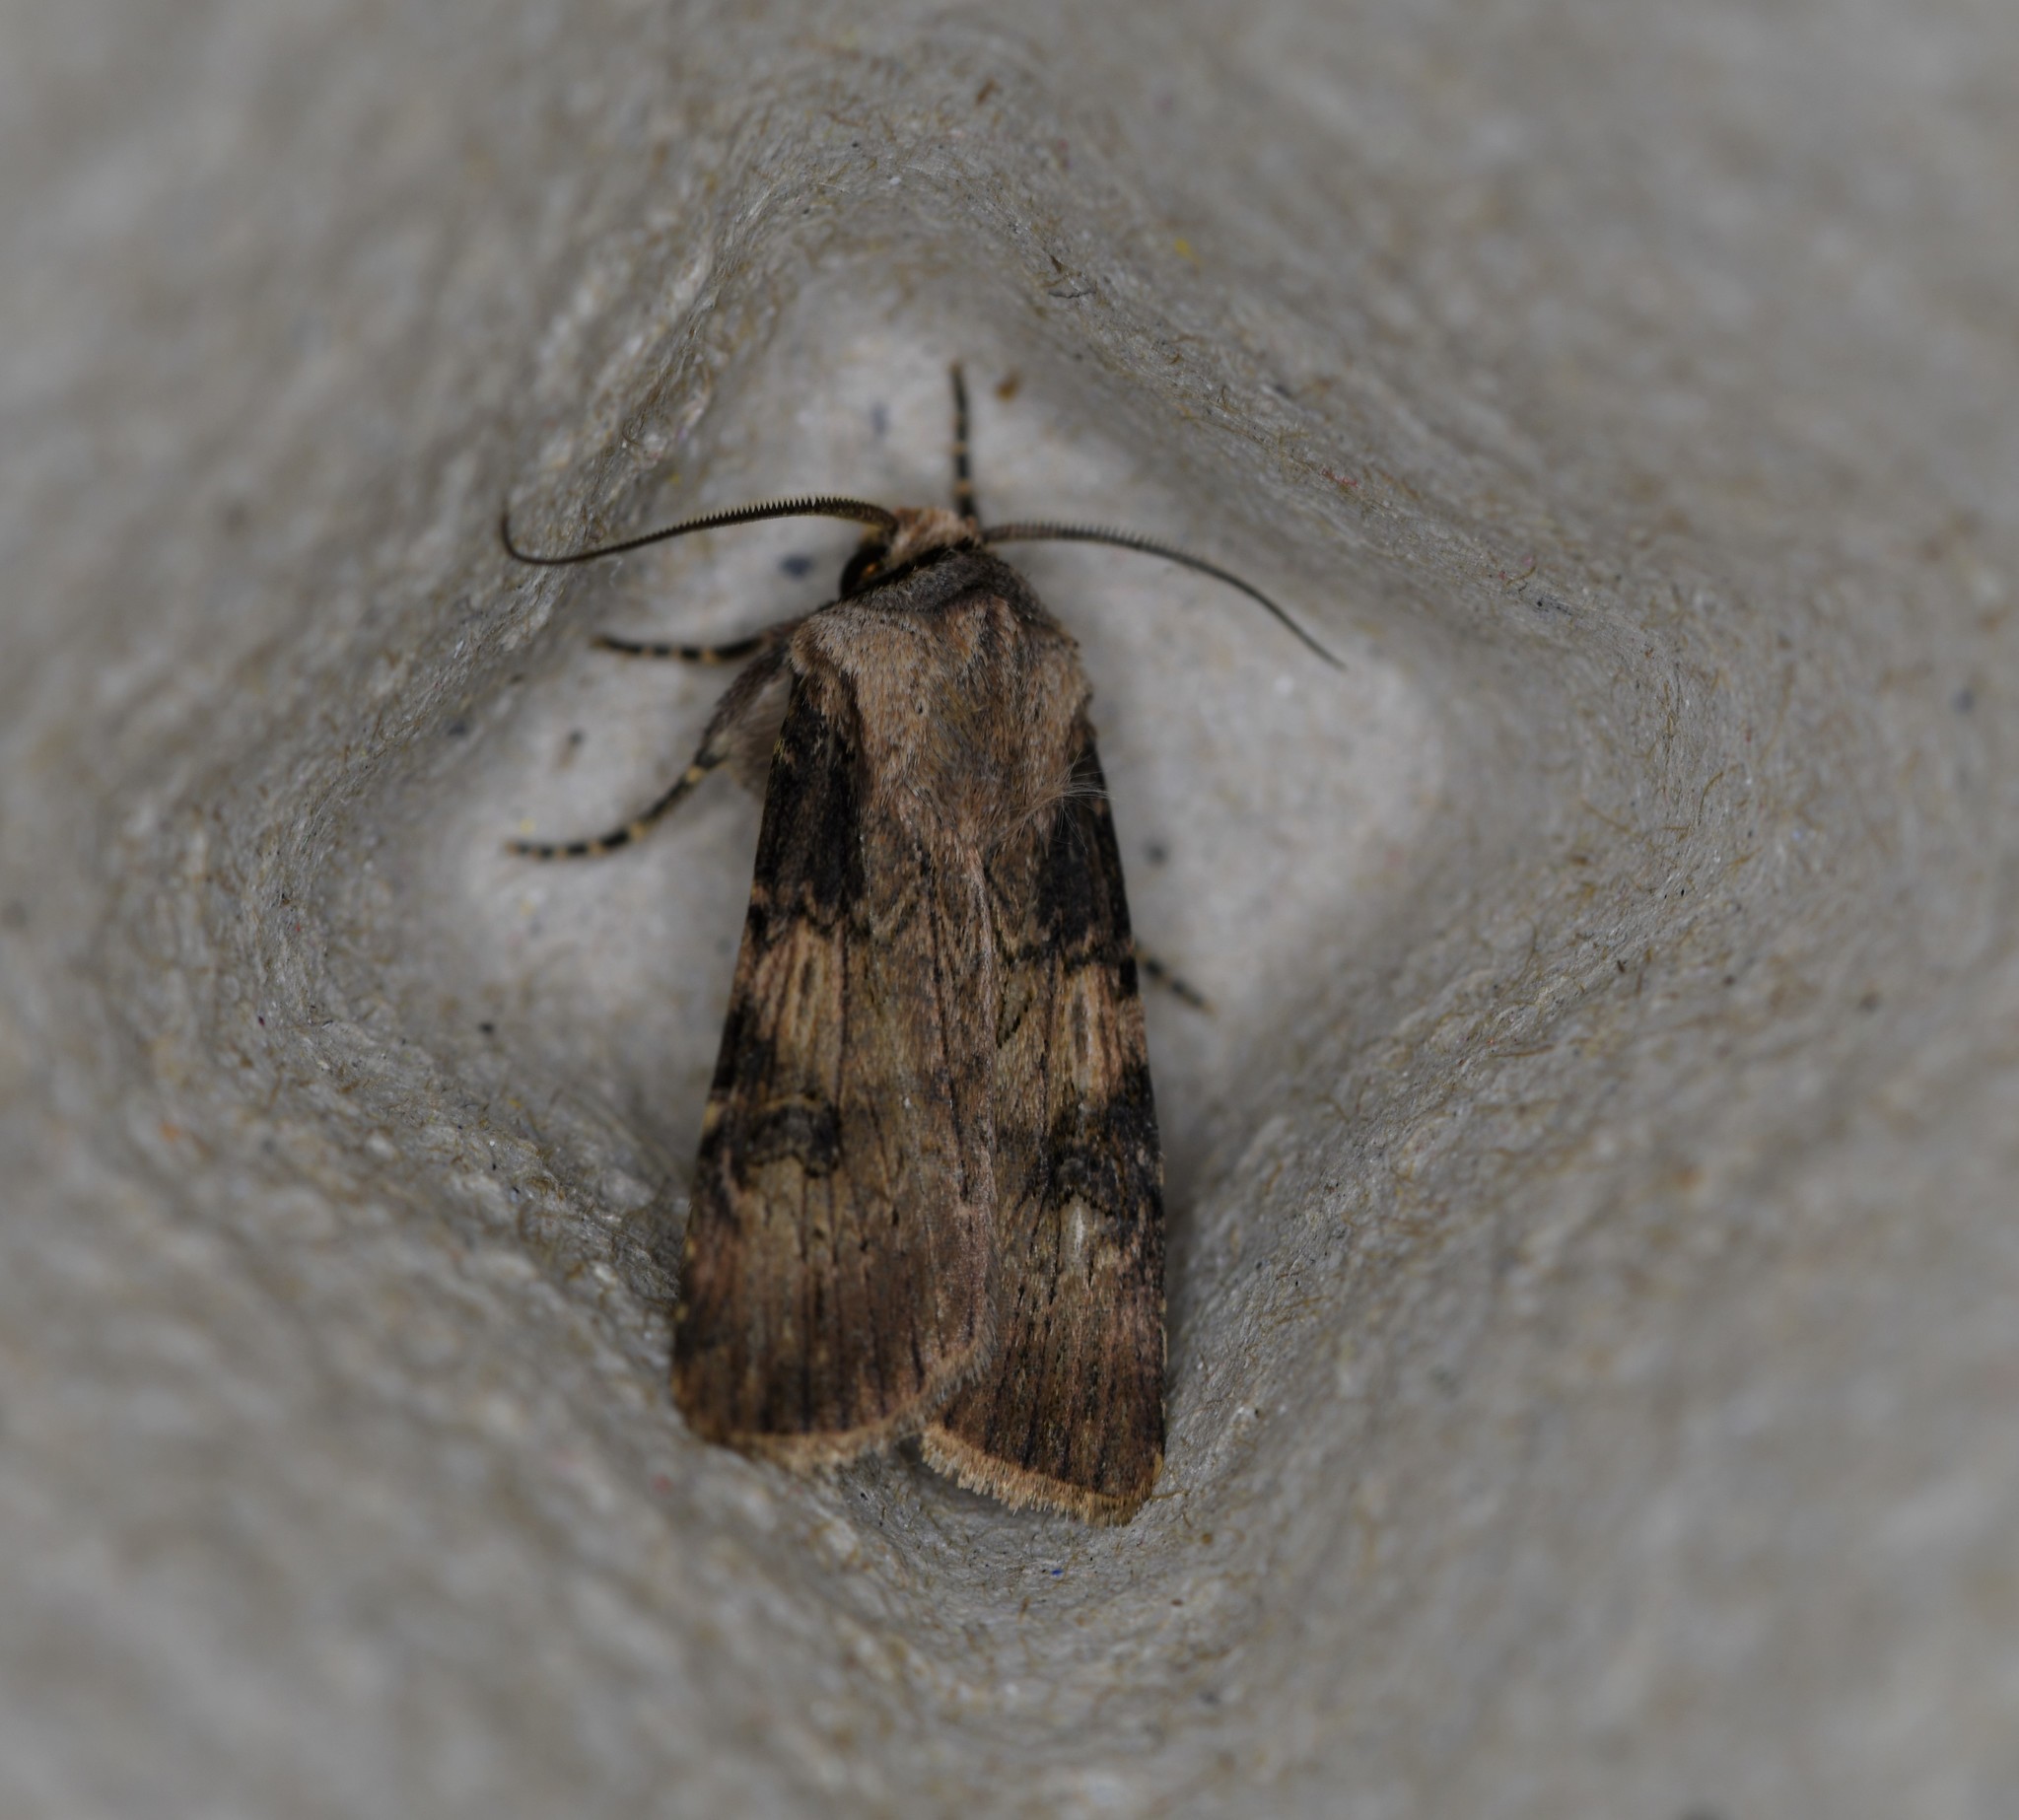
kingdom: Animalia
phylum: Arthropoda
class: Insecta
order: Lepidoptera
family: Noctuidae
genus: Agrotis
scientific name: Agrotis puta
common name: Shuttle-shaped dart
